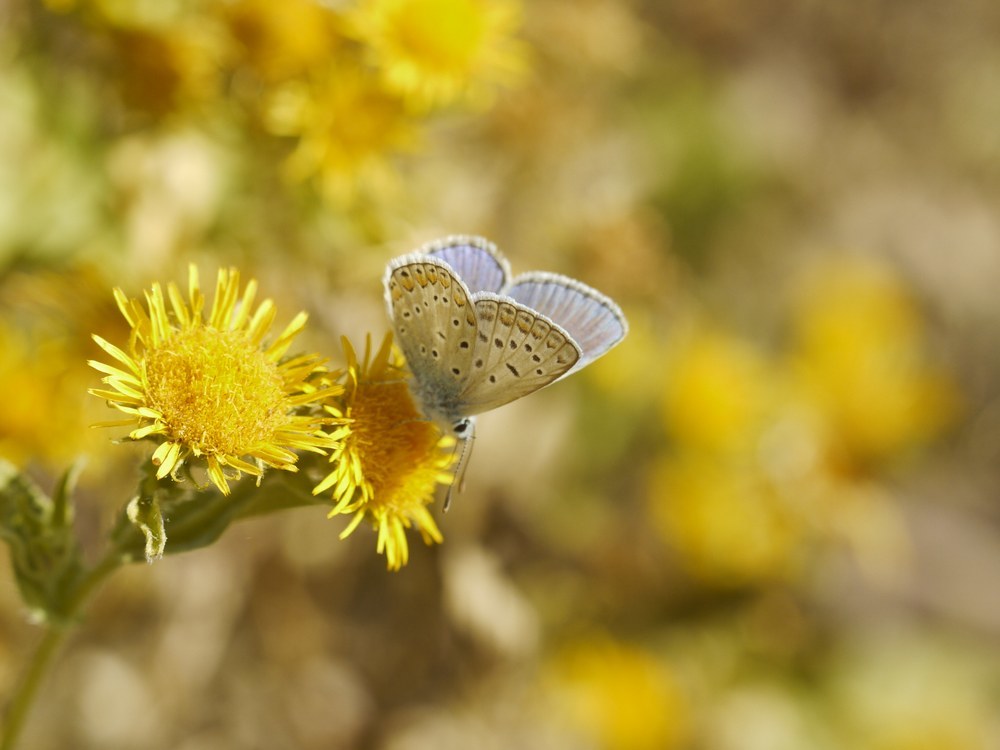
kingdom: Animalia
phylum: Arthropoda
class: Insecta
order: Lepidoptera
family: Lycaenidae
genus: Polyommatus
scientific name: Polyommatus icarus
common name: Common blue
